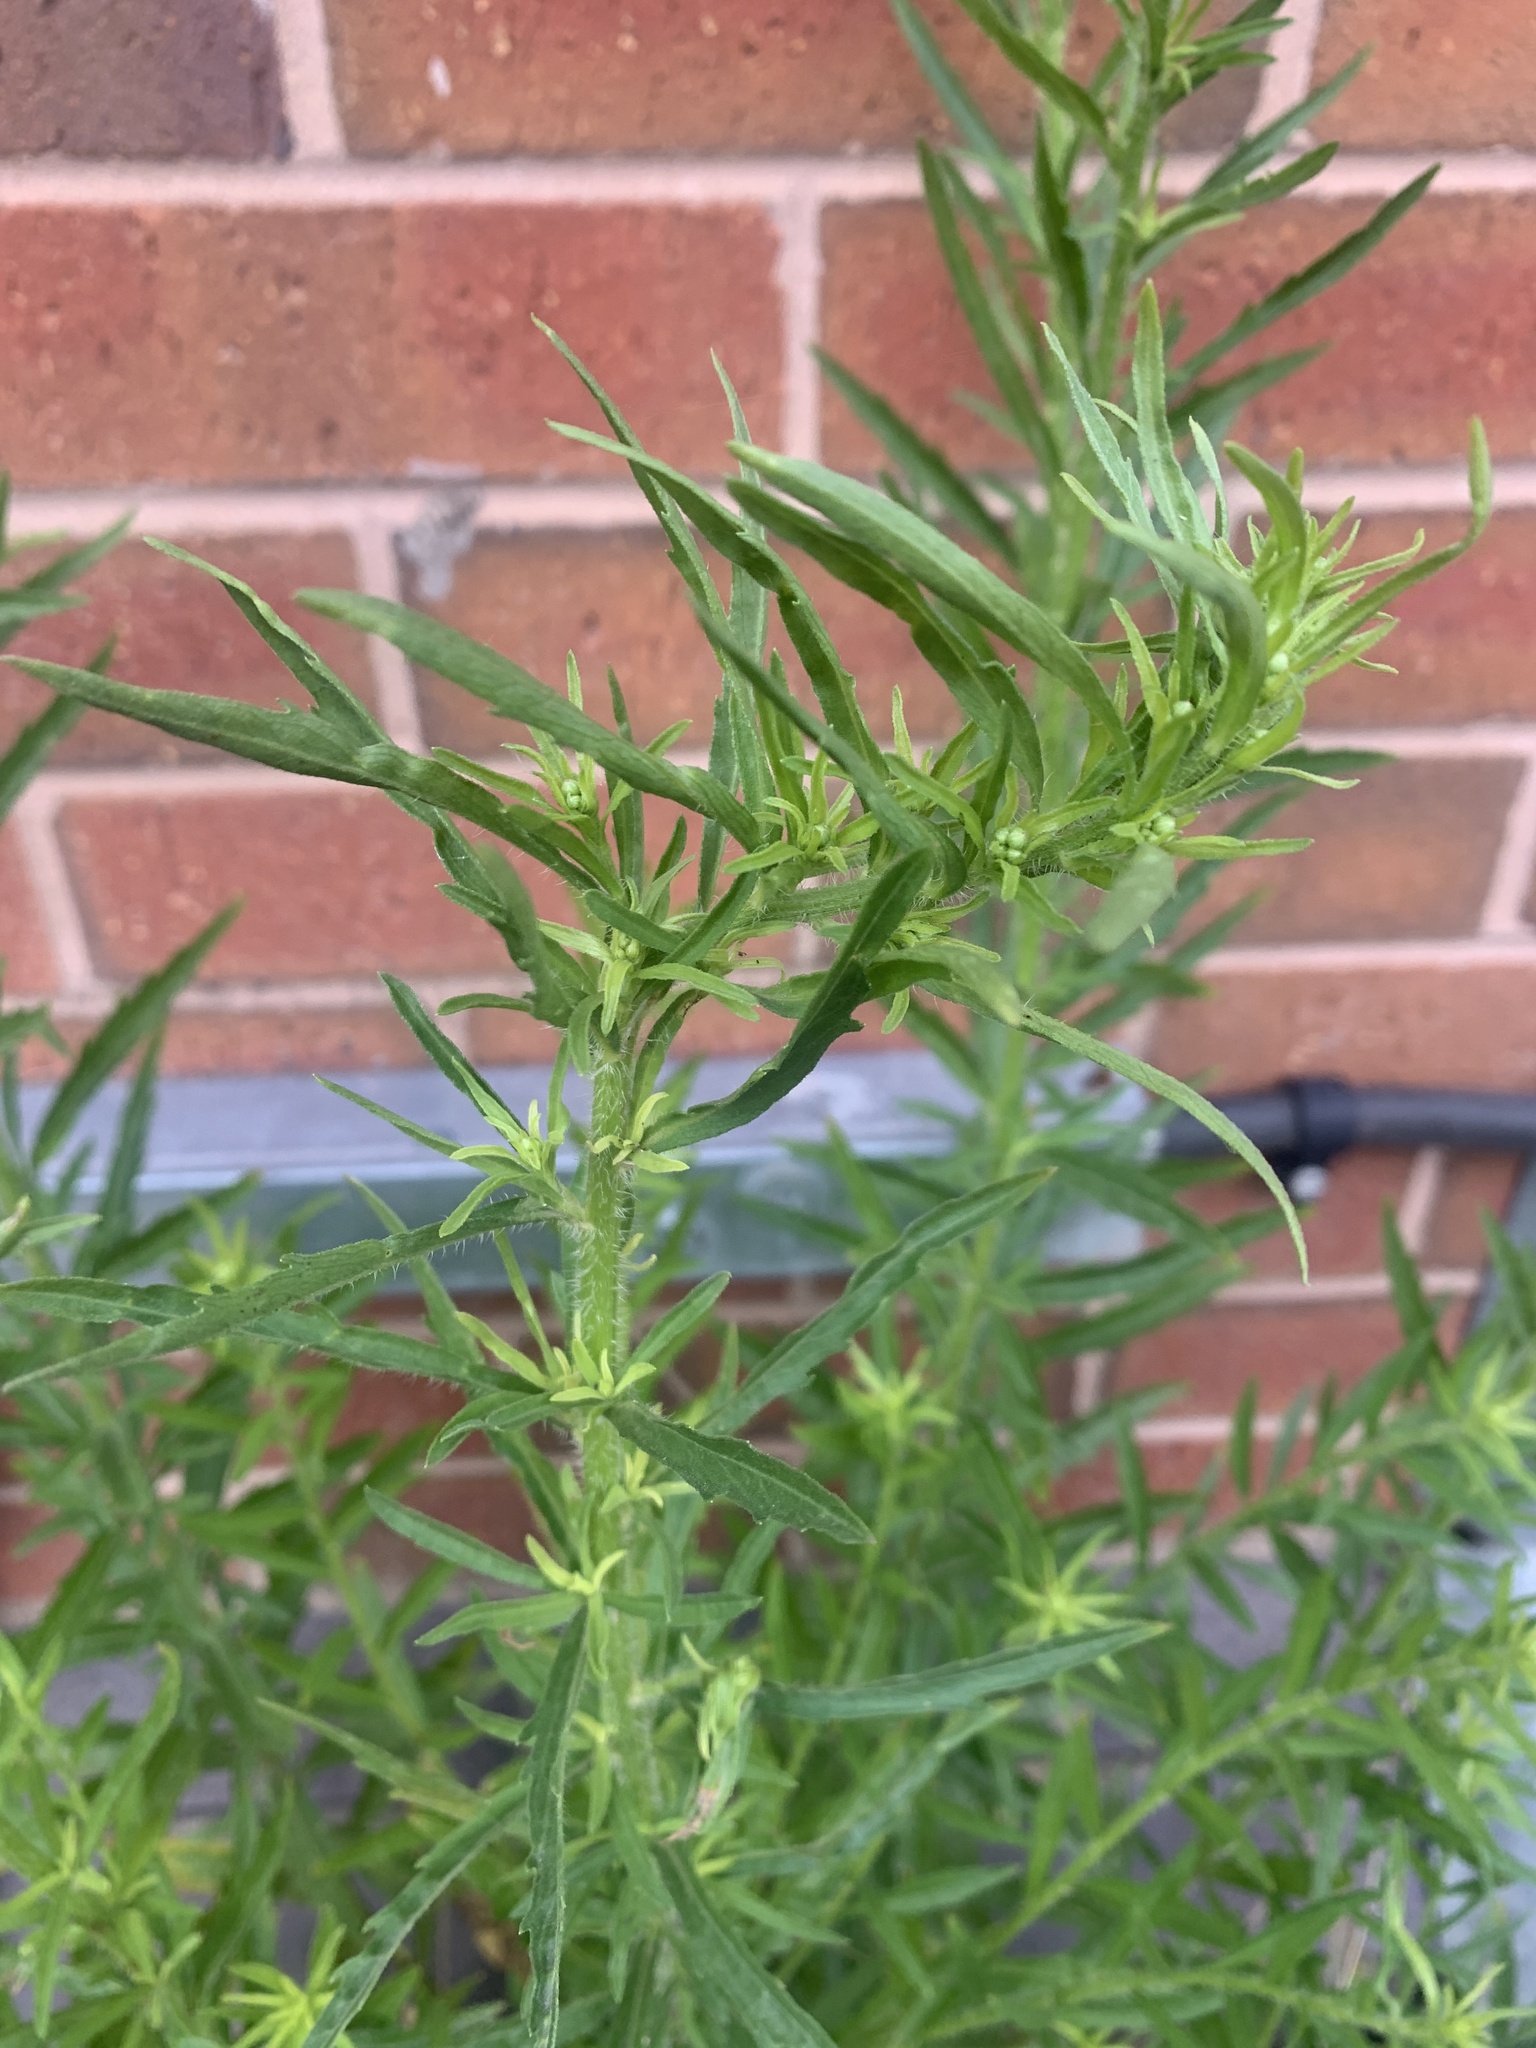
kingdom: Plantae
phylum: Tracheophyta
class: Magnoliopsida
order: Caryophyllales
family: Amaranthaceae
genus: Bassia
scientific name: Bassia scoparia
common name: Belvedere
